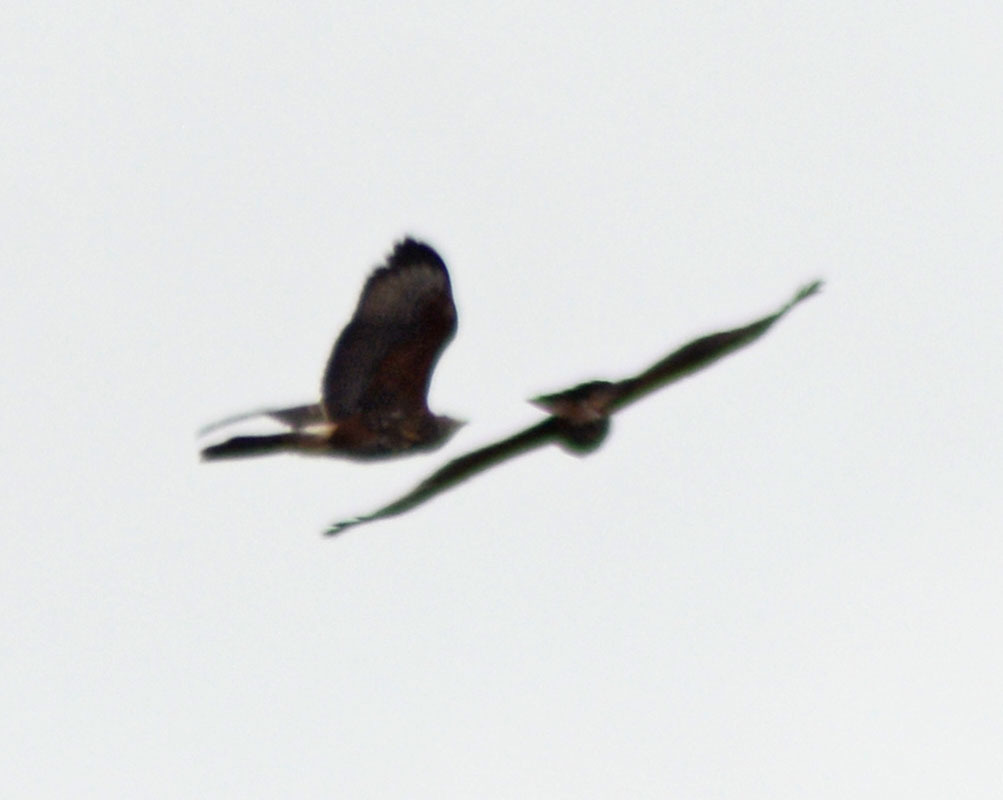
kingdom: Animalia
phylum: Chordata
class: Aves
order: Accipitriformes
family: Accipitridae
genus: Parabuteo
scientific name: Parabuteo unicinctus
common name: Harris's hawk
